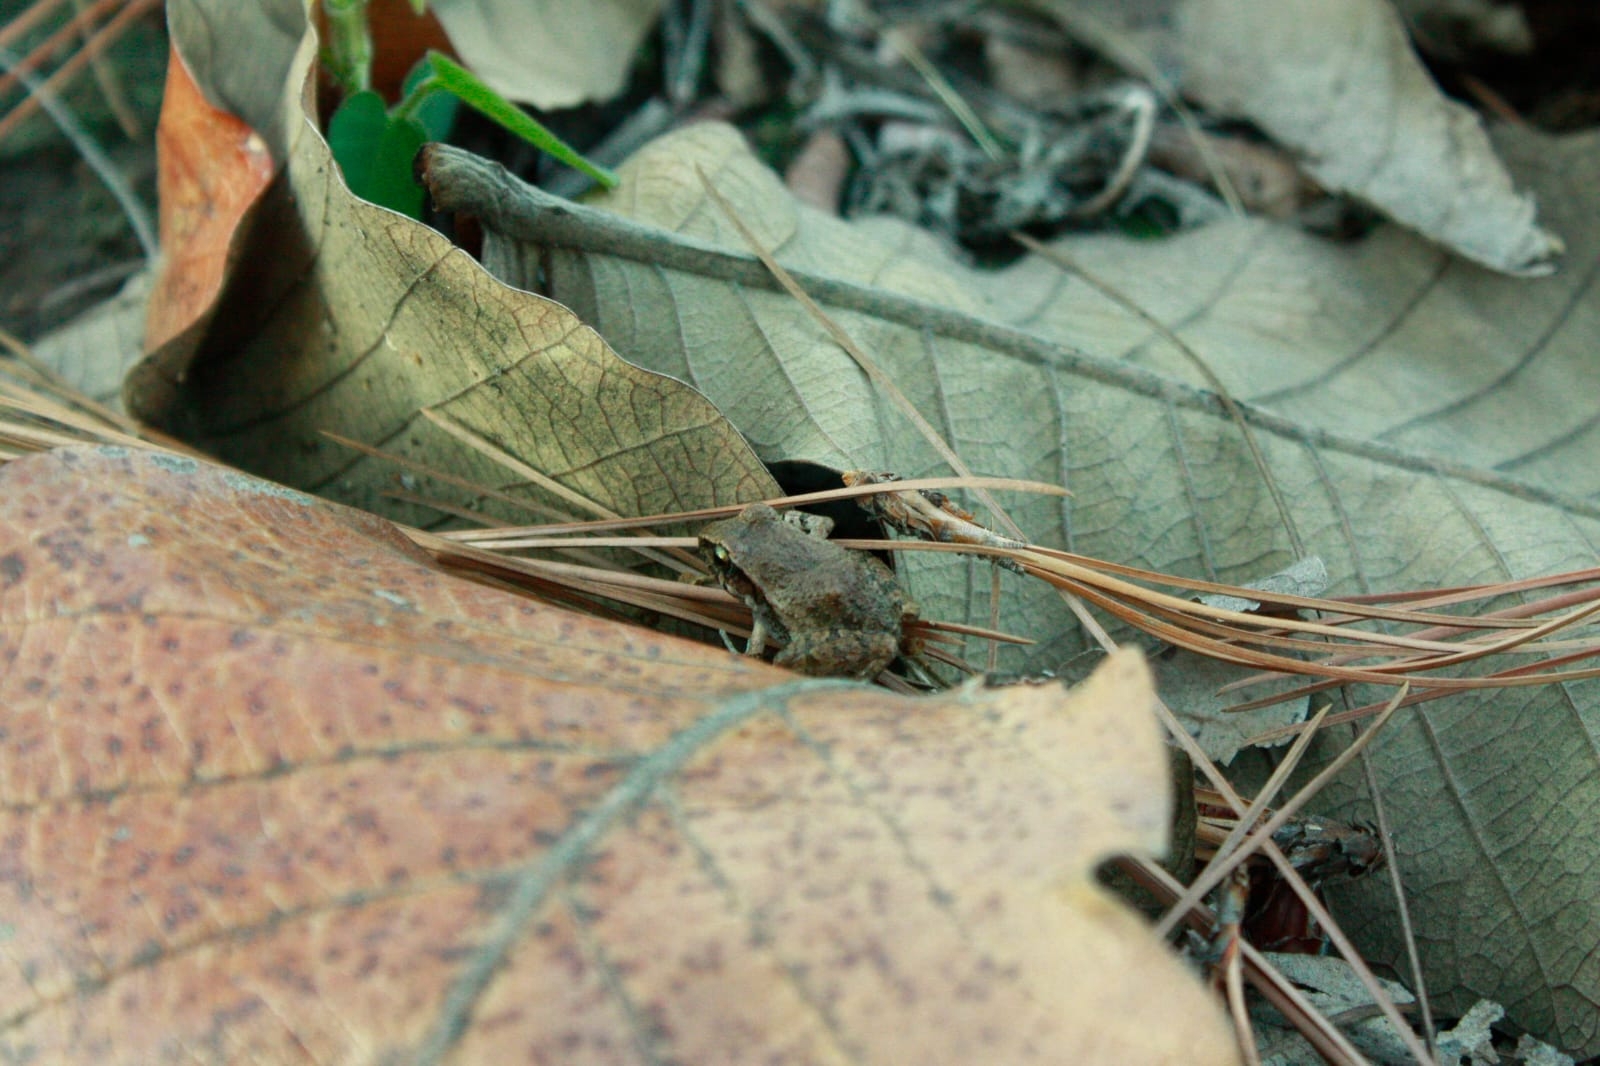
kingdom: Animalia
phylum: Chordata
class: Amphibia
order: Anura
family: Craugastoridae
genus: Craugastor
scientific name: Craugastor occidentalis
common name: Taylor's barking frog
